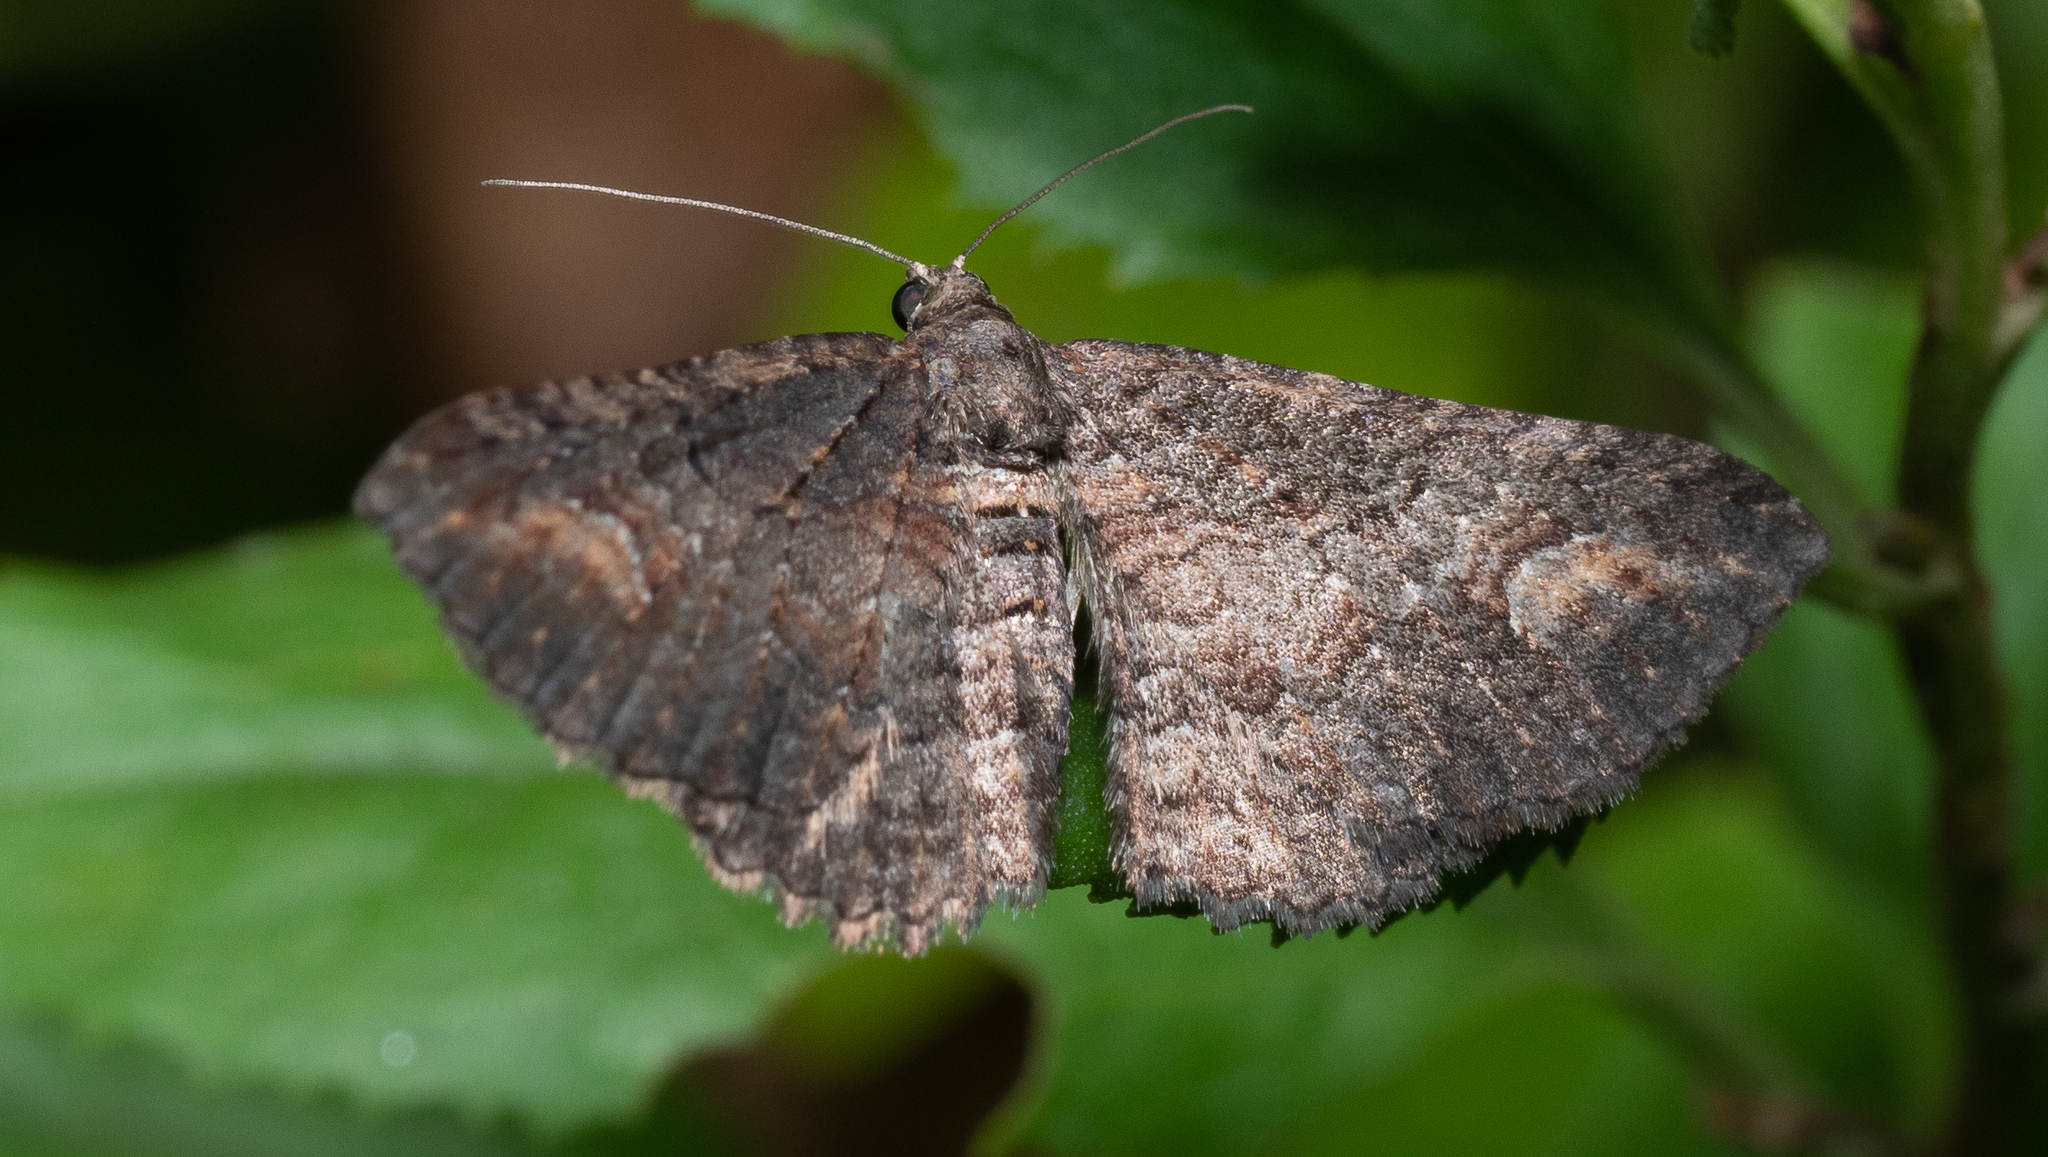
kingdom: Animalia
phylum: Arthropoda
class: Insecta
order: Lepidoptera
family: Geometridae
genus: Eupithecia
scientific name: Eupithecia Eucymatoge scotodes
